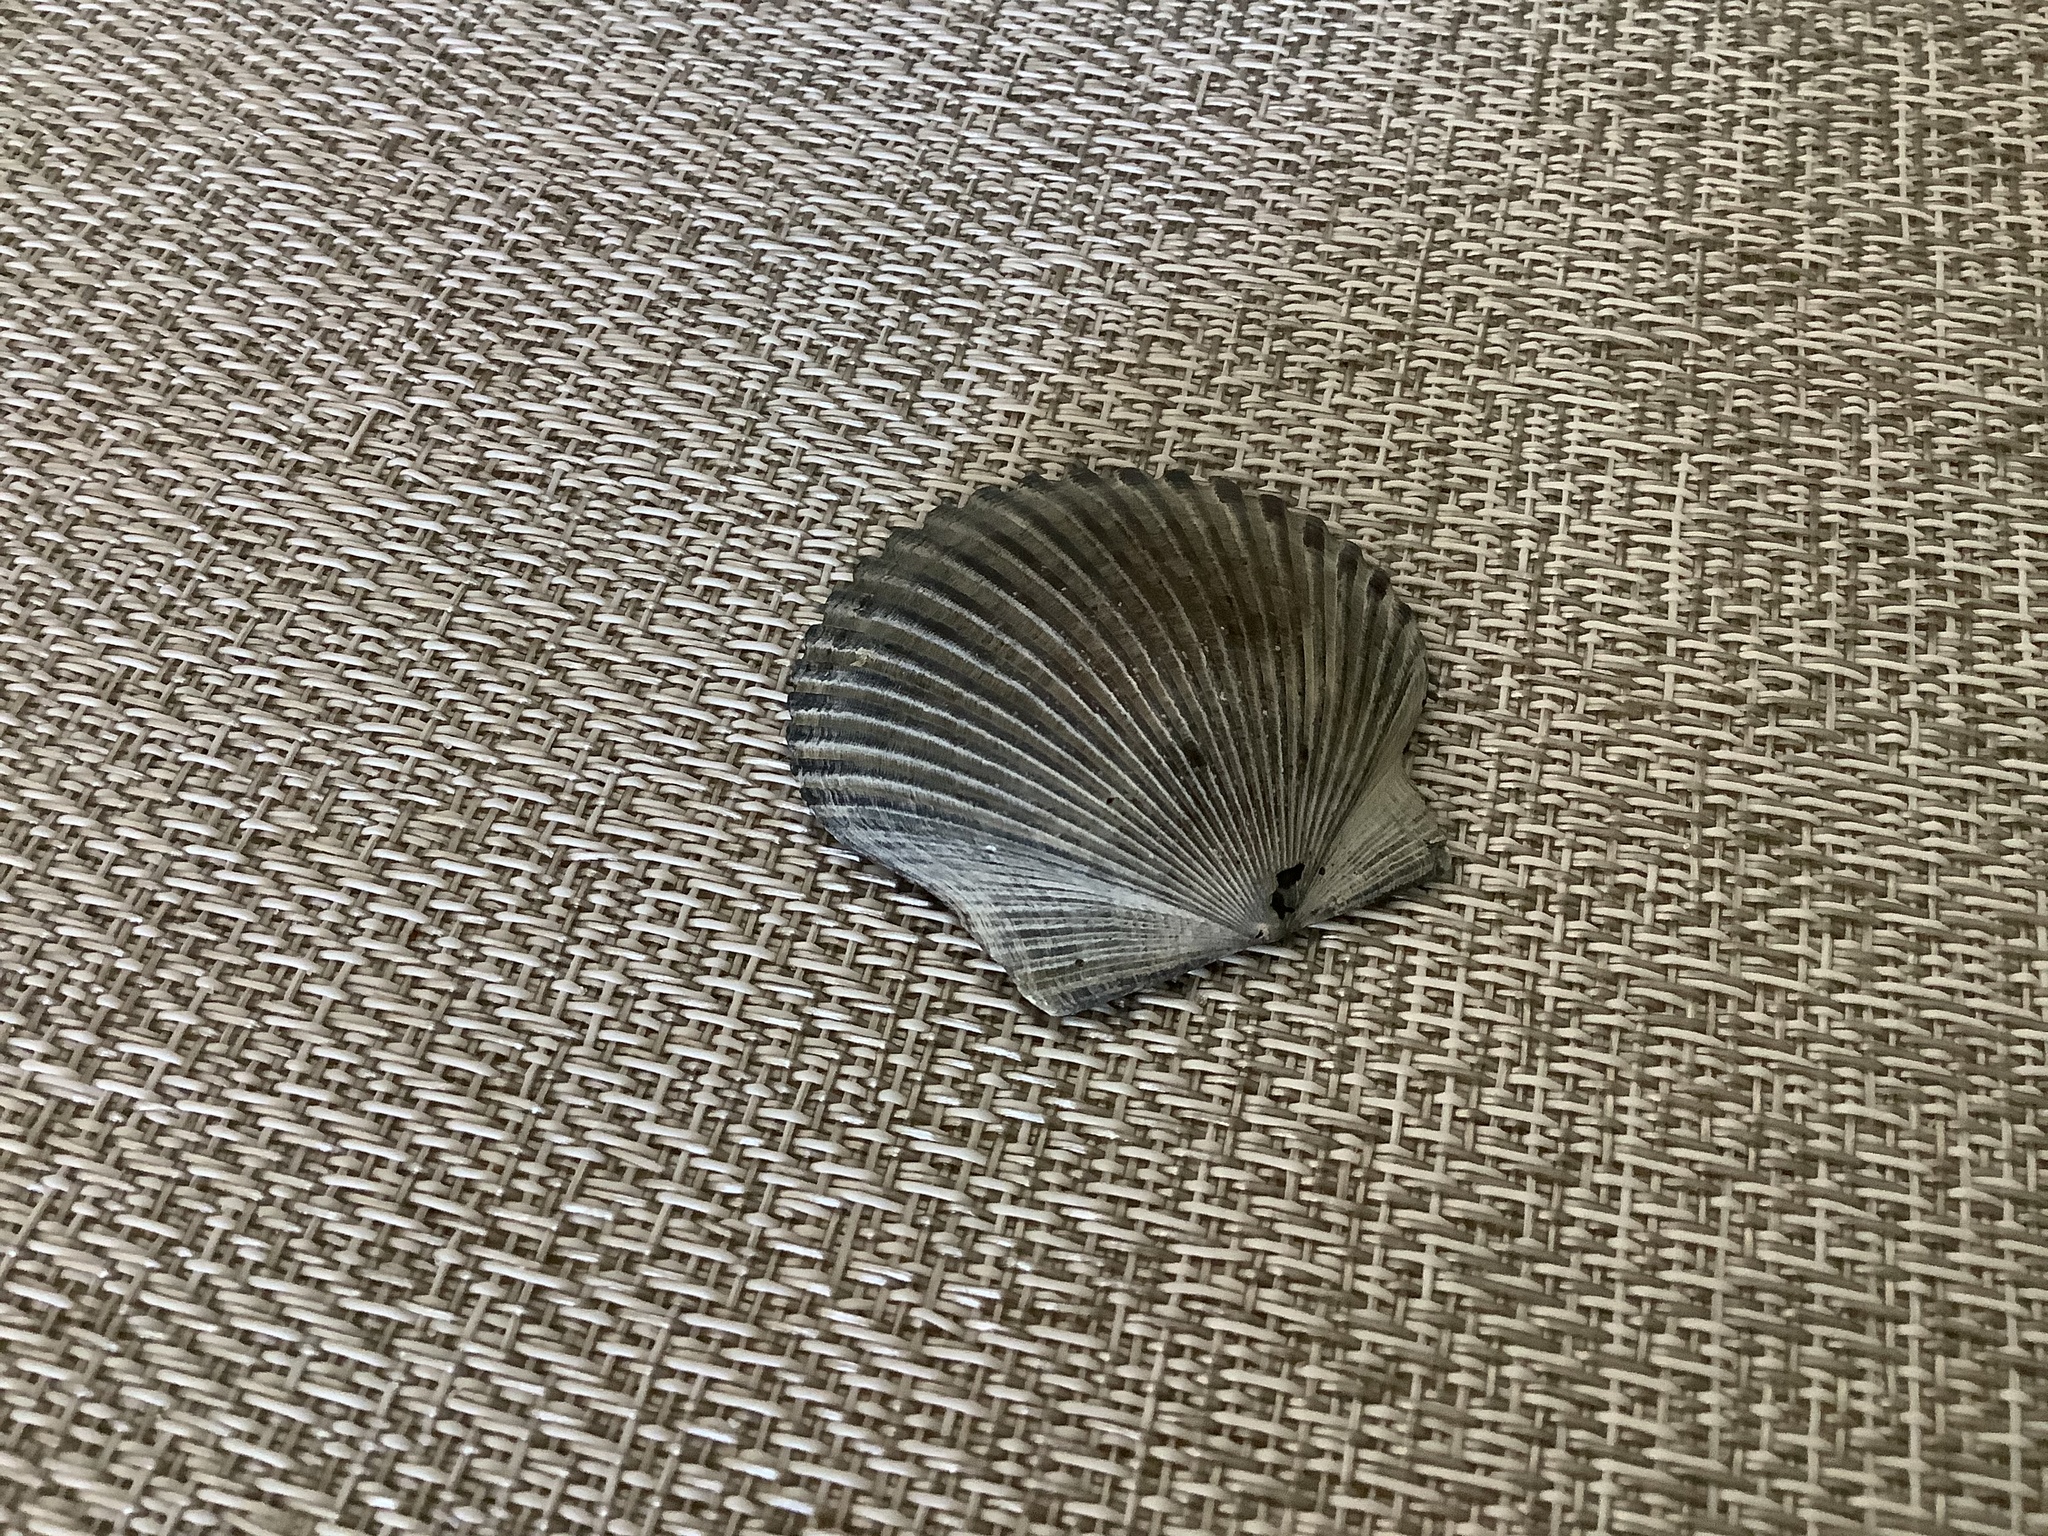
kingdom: Animalia
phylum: Mollusca
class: Bivalvia
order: Pectinida
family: Pectinidae
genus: Argopecten
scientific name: Argopecten irradians
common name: Atlantic bay scallop
